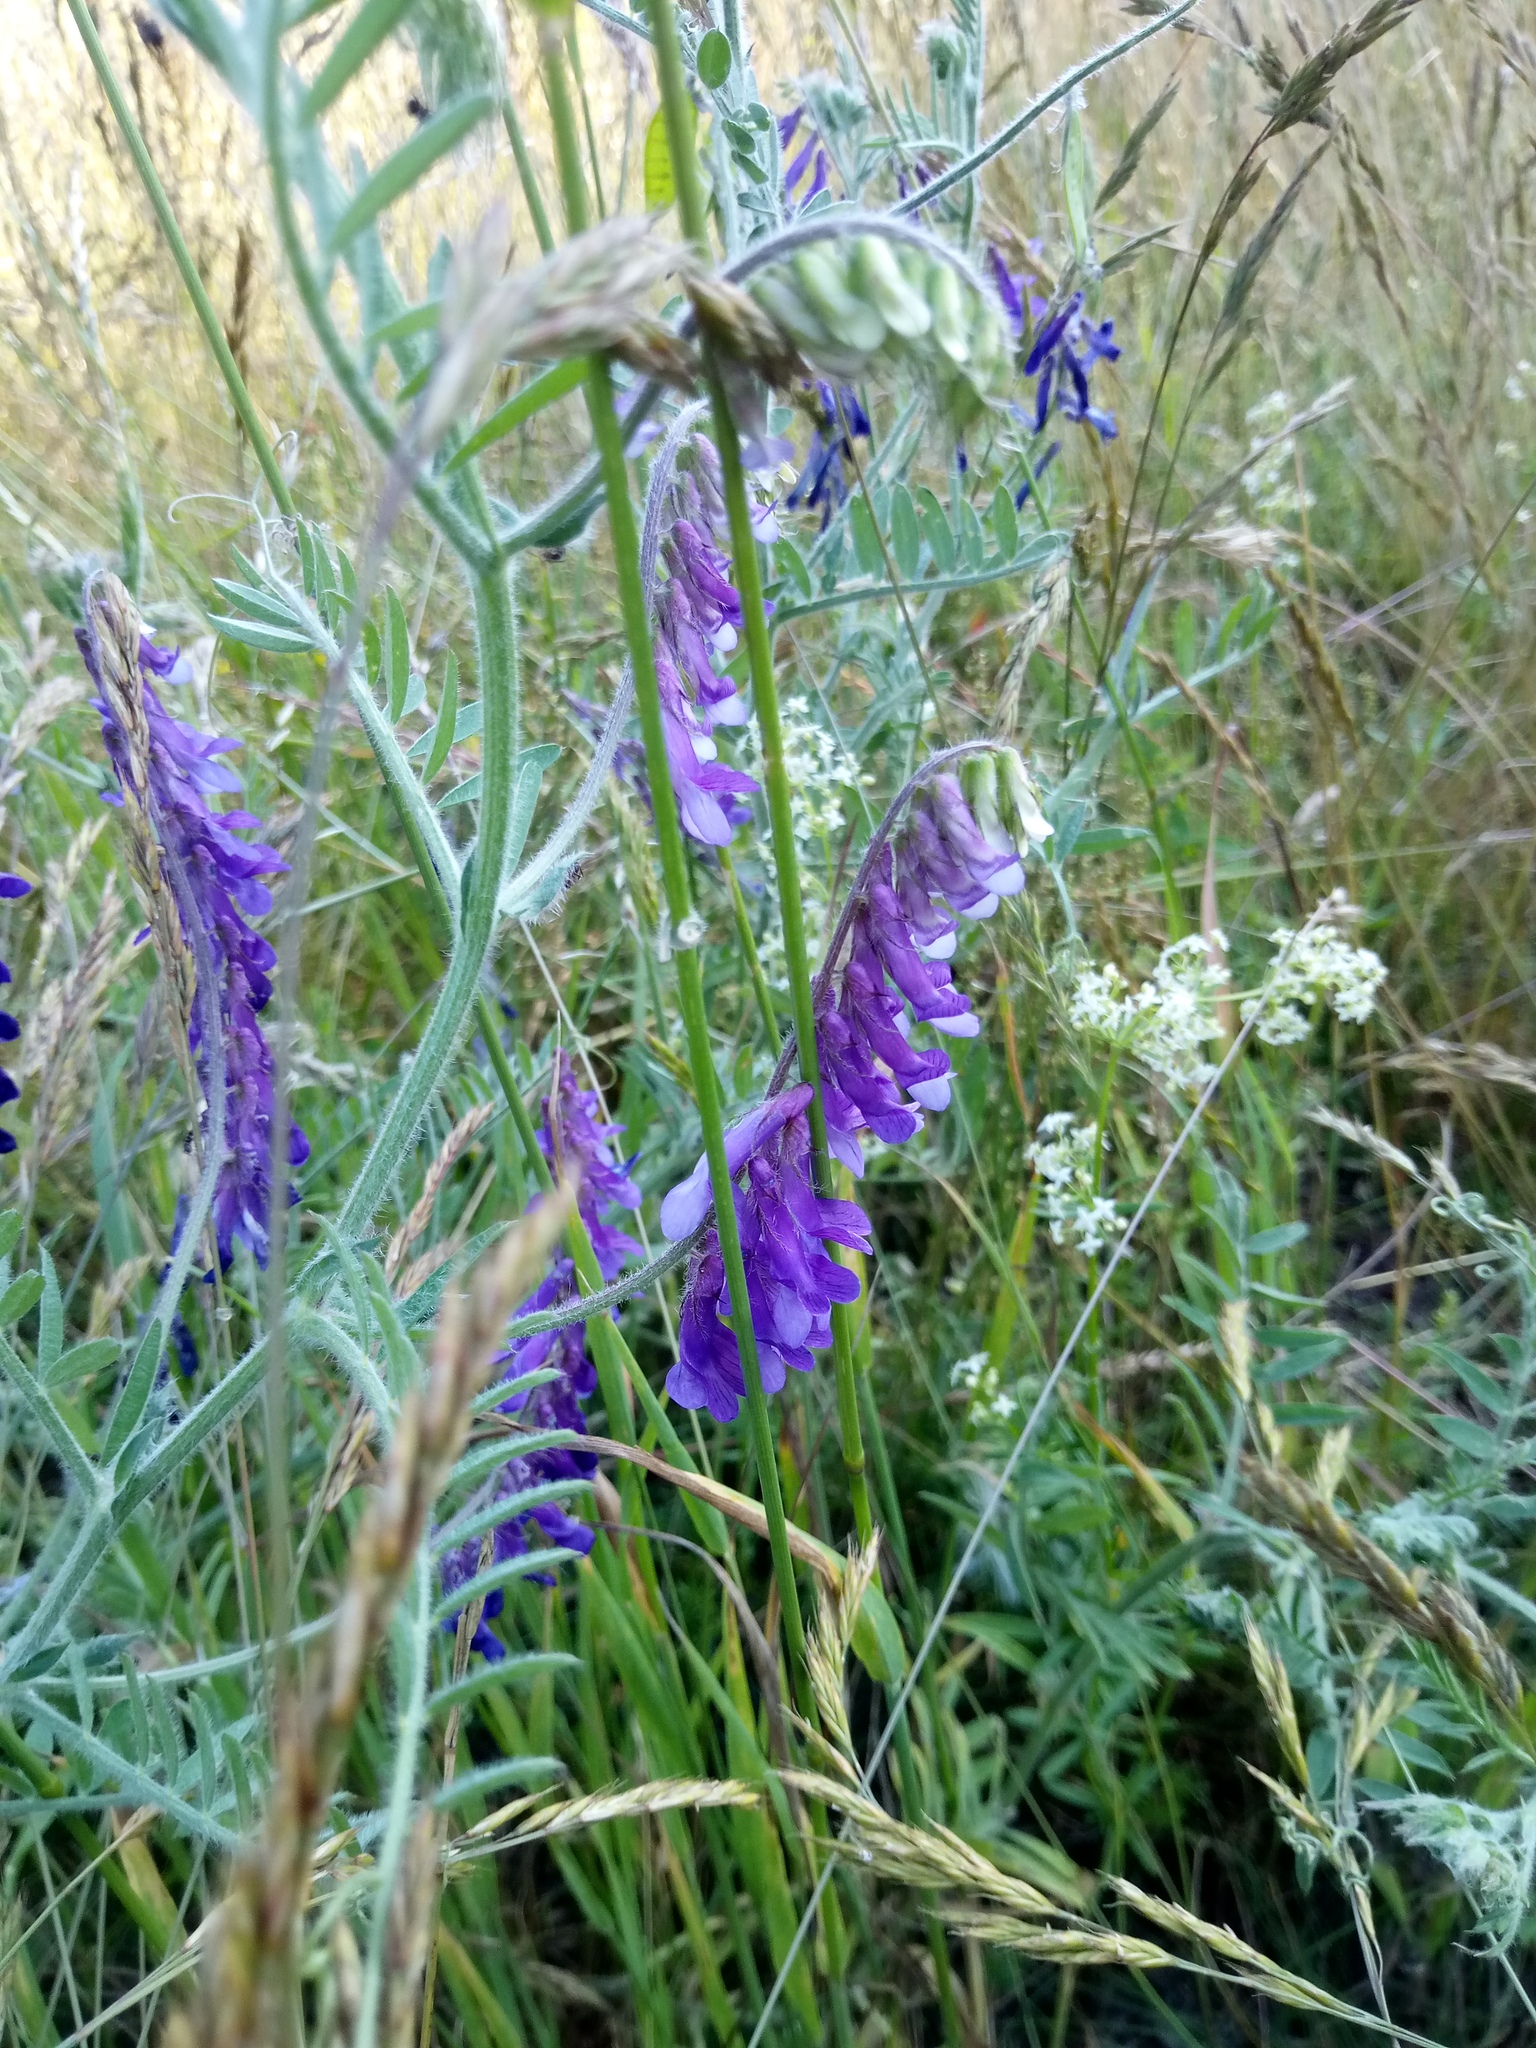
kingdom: Plantae
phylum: Tracheophyta
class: Magnoliopsida
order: Fabales
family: Fabaceae
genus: Vicia
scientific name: Vicia villosa
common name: Fodder vetch
